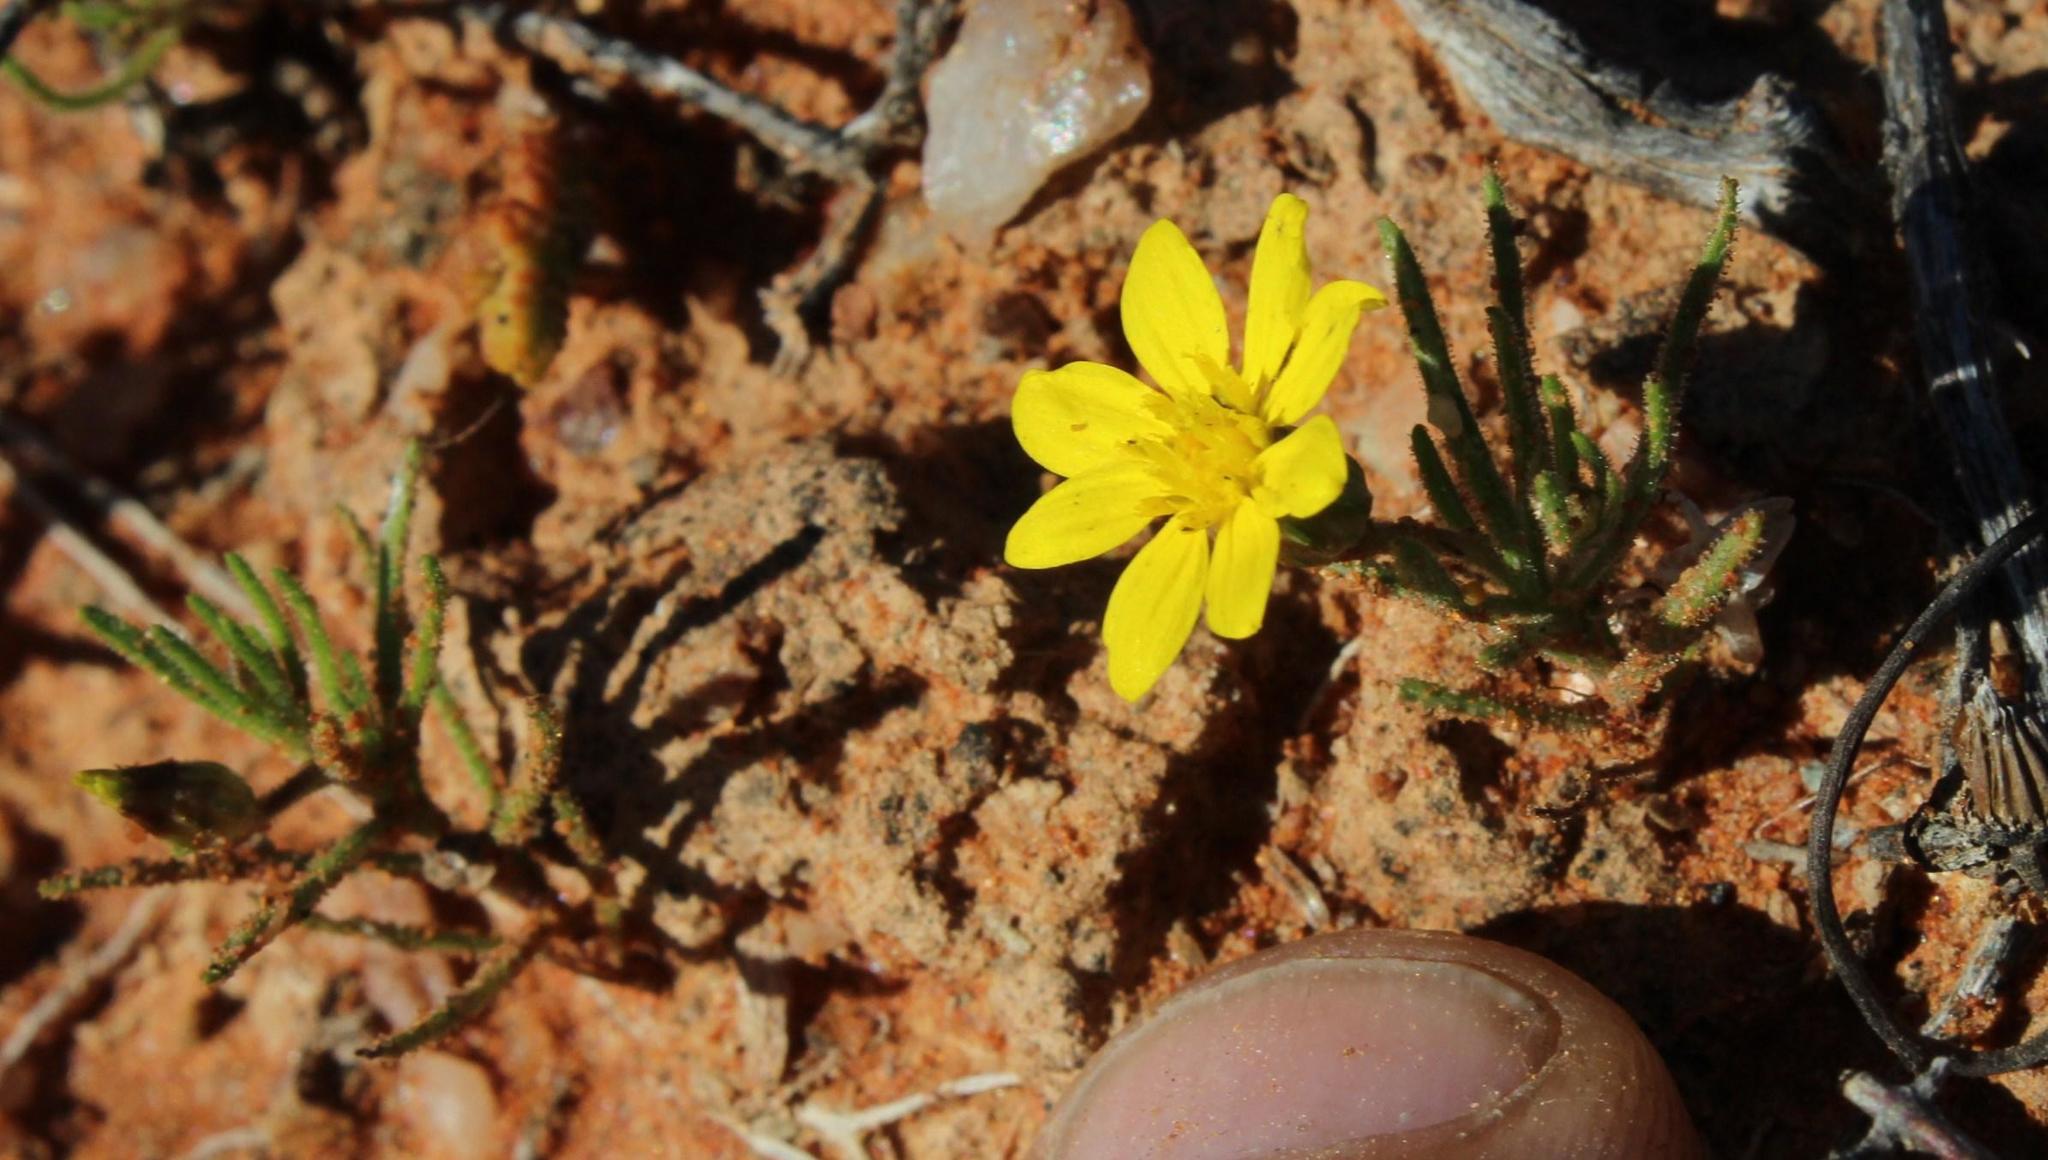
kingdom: Plantae
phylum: Tracheophyta
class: Magnoliopsida
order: Asterales
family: Asteraceae
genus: Rhynchopsidium
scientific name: Rhynchopsidium pumilum
